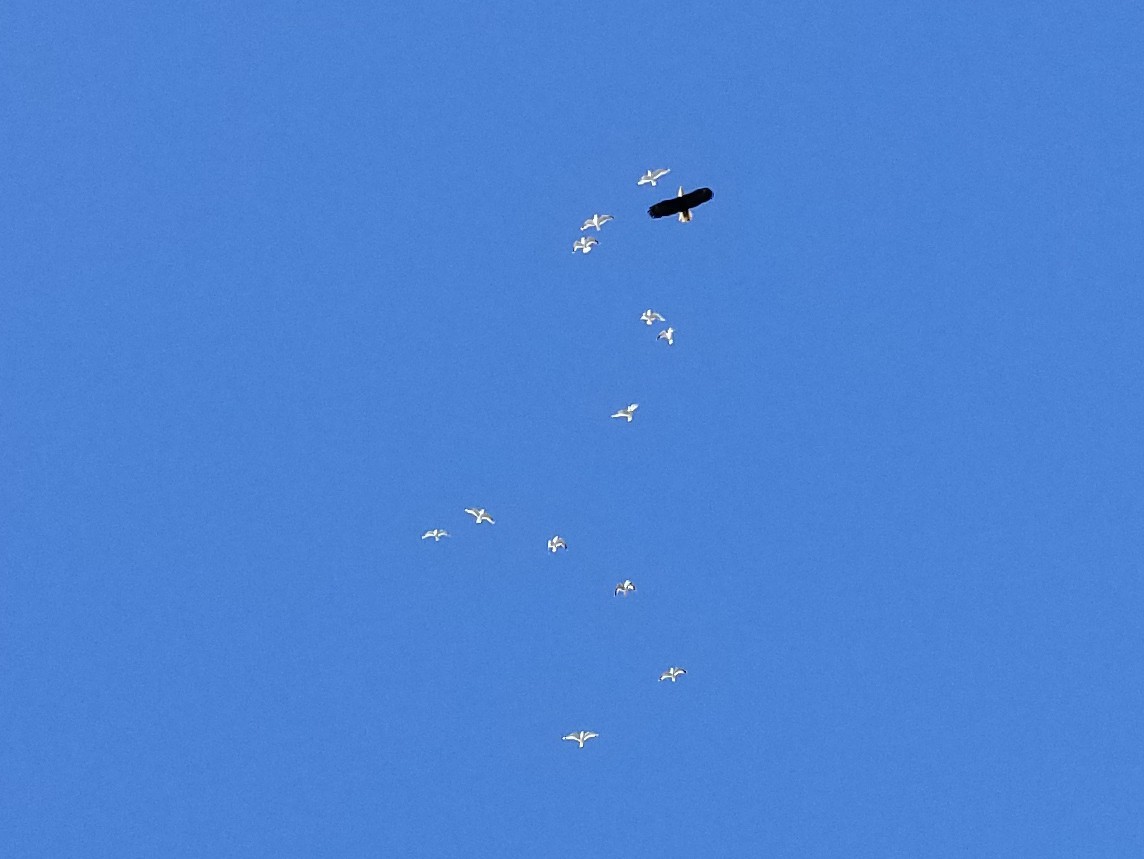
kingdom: Animalia
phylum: Chordata
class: Aves
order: Accipitriformes
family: Accipitridae
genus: Haliaeetus
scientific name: Haliaeetus leucocephalus
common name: Bald eagle
